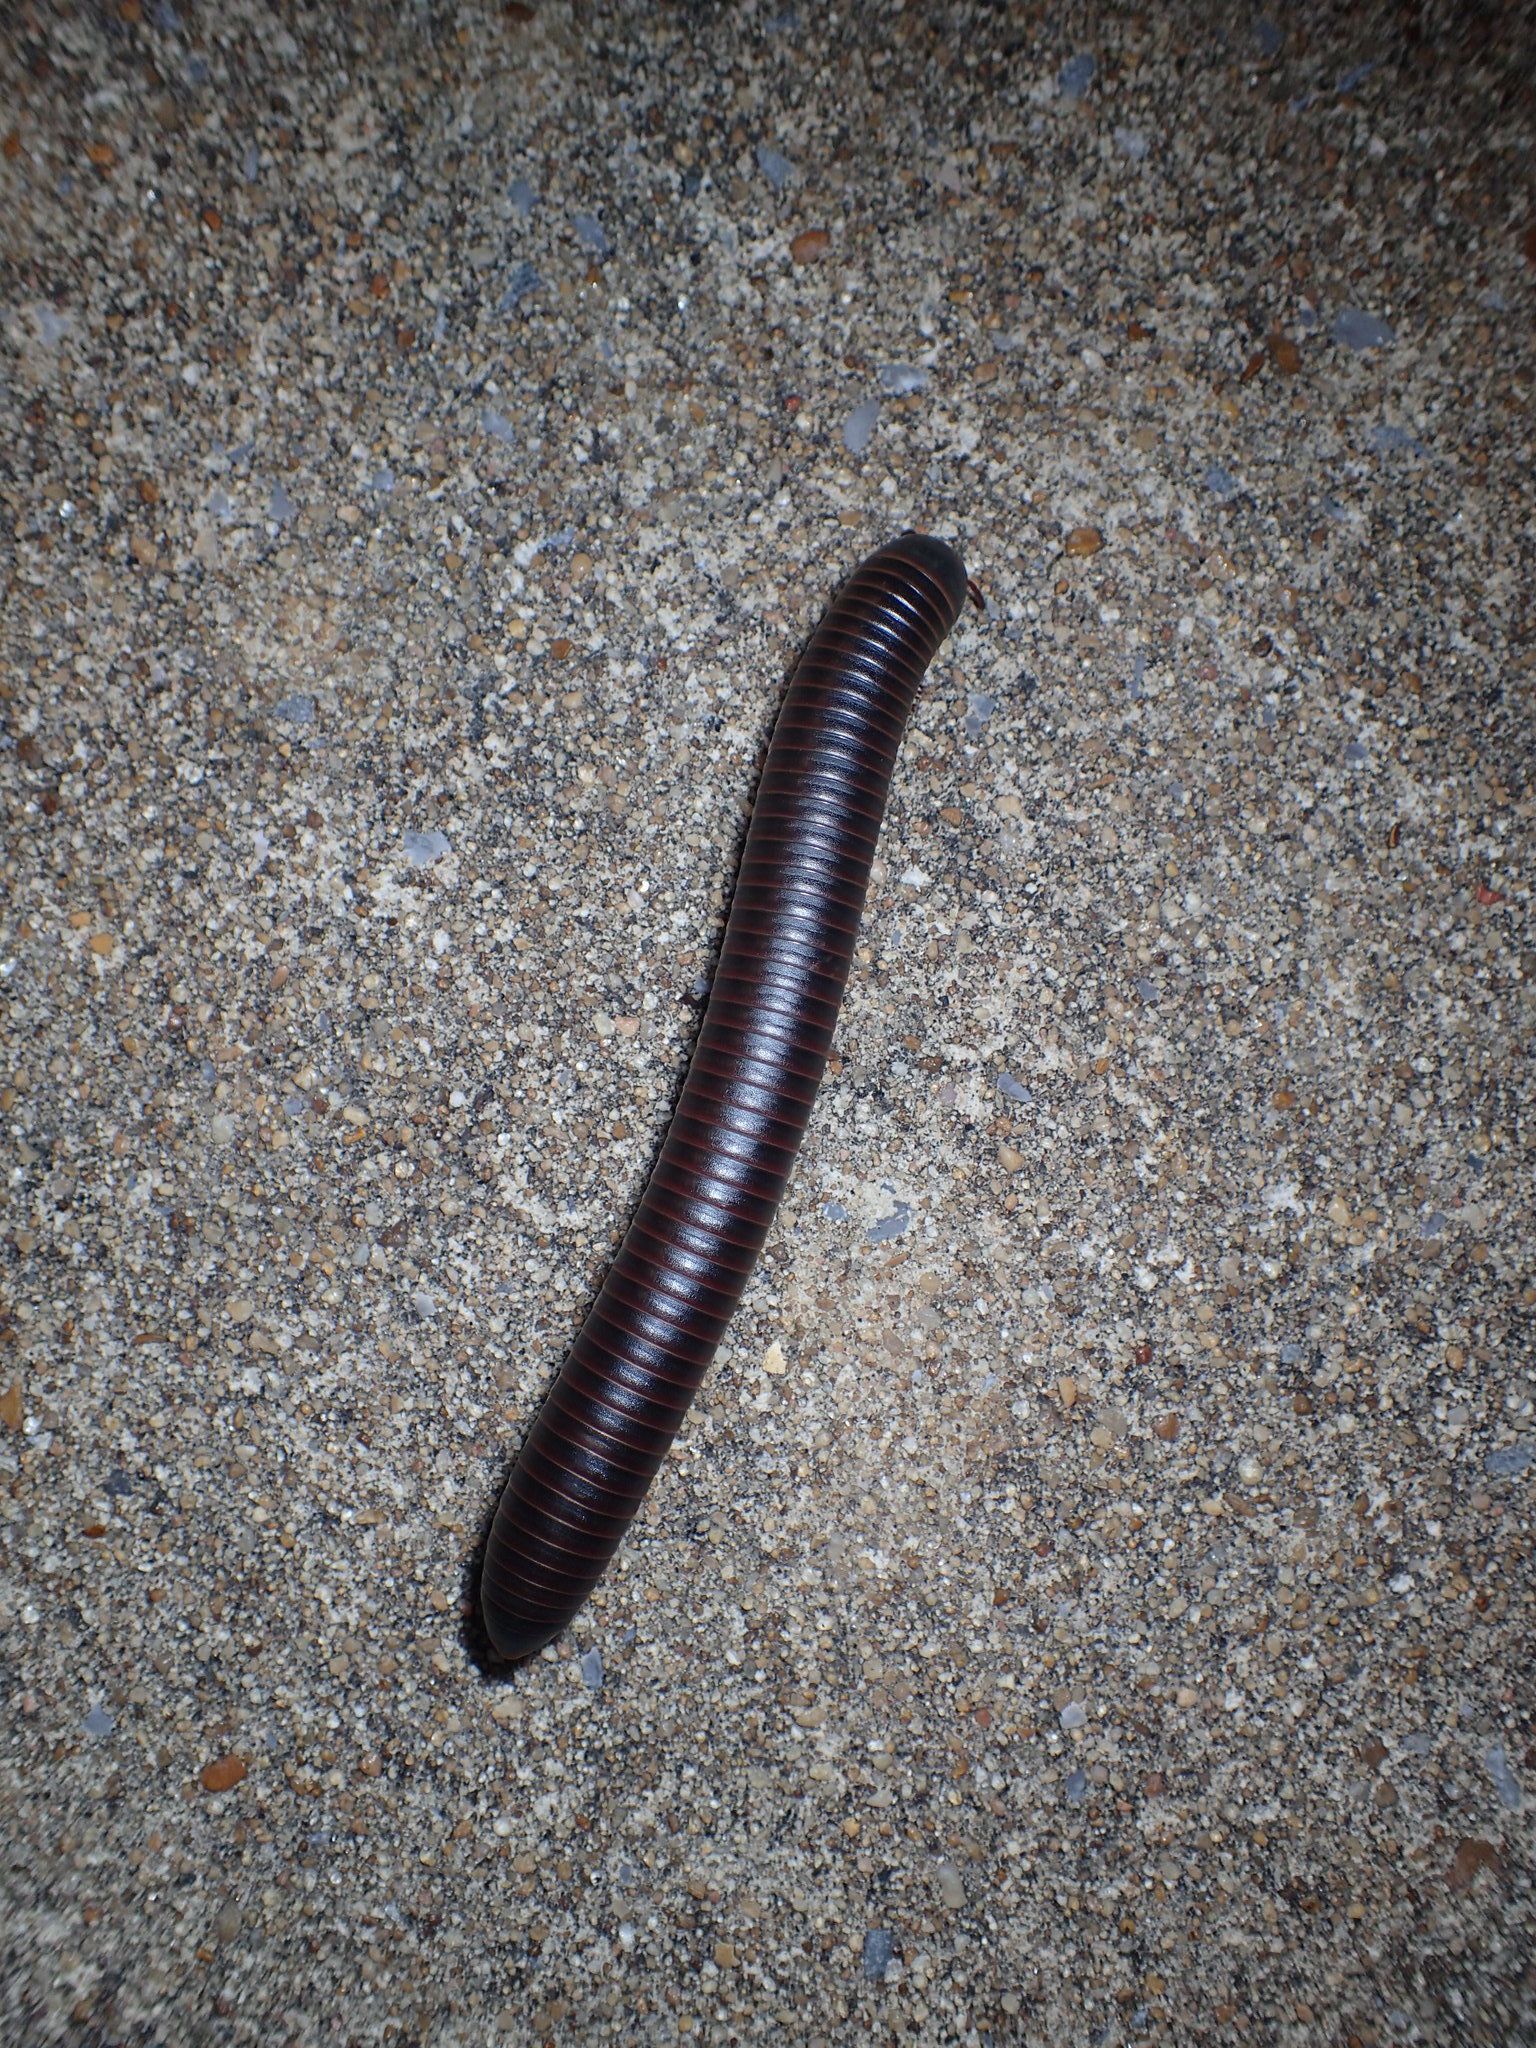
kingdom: Animalia
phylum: Arthropoda
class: Diplopoda
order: Spirobolida
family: Spirobolidae
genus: Narceus
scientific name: Narceus
